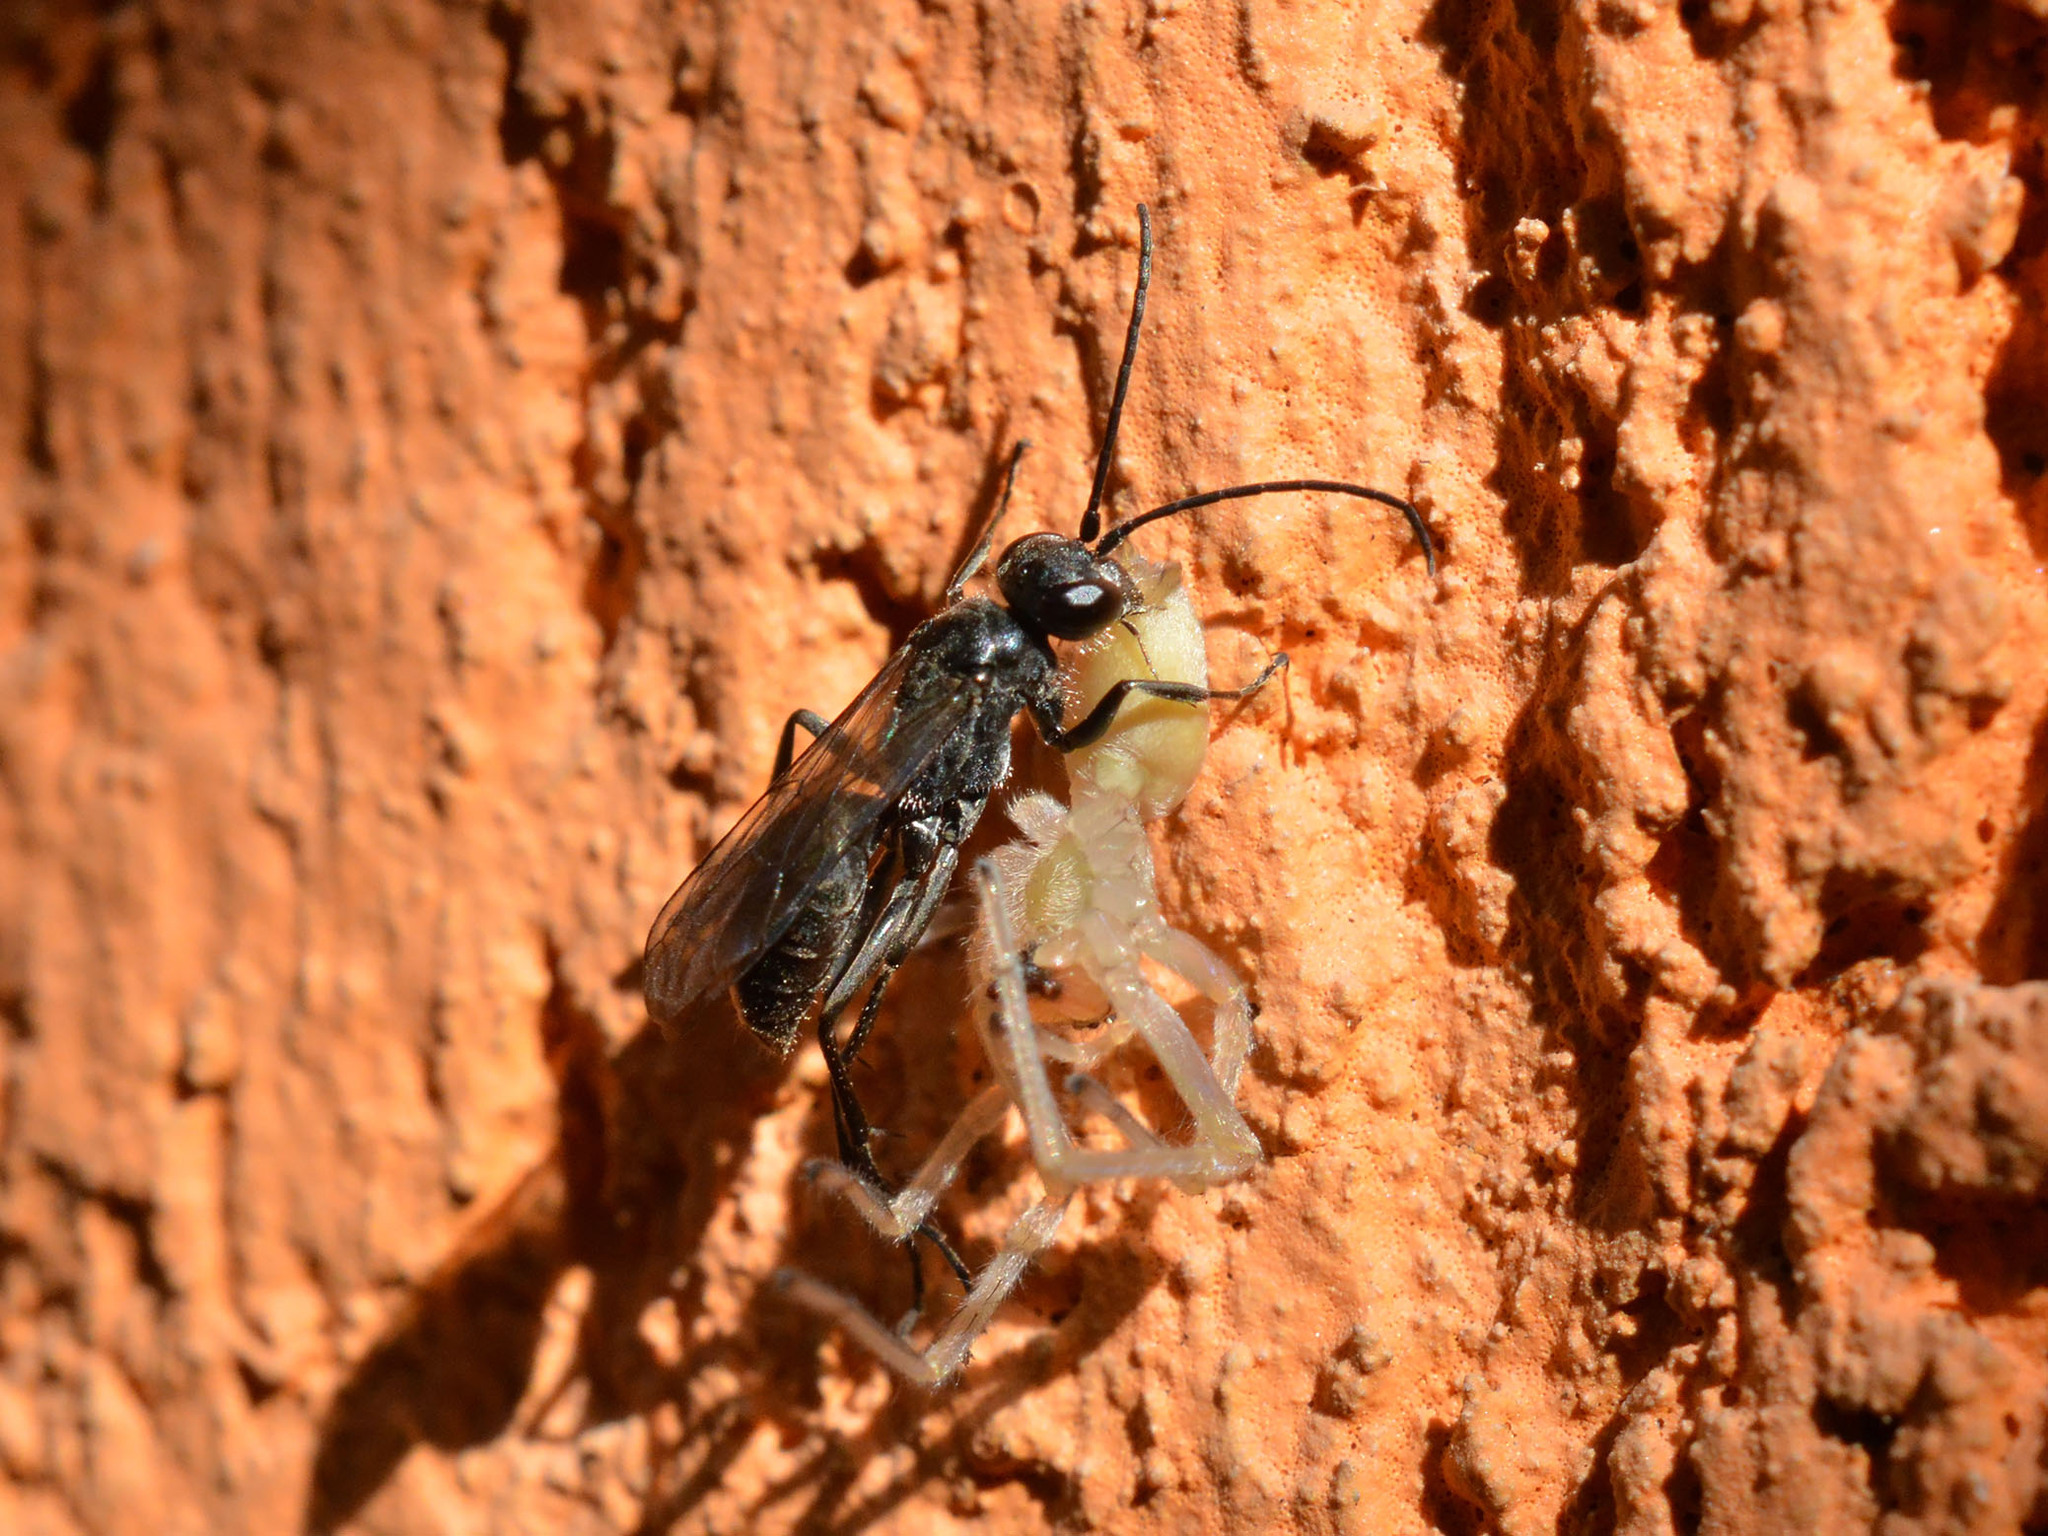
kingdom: Animalia
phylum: Arthropoda
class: Insecta
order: Hymenoptera
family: Pompilidae
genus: Auplopus
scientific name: Auplopus carbonarius
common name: Spider wasp
